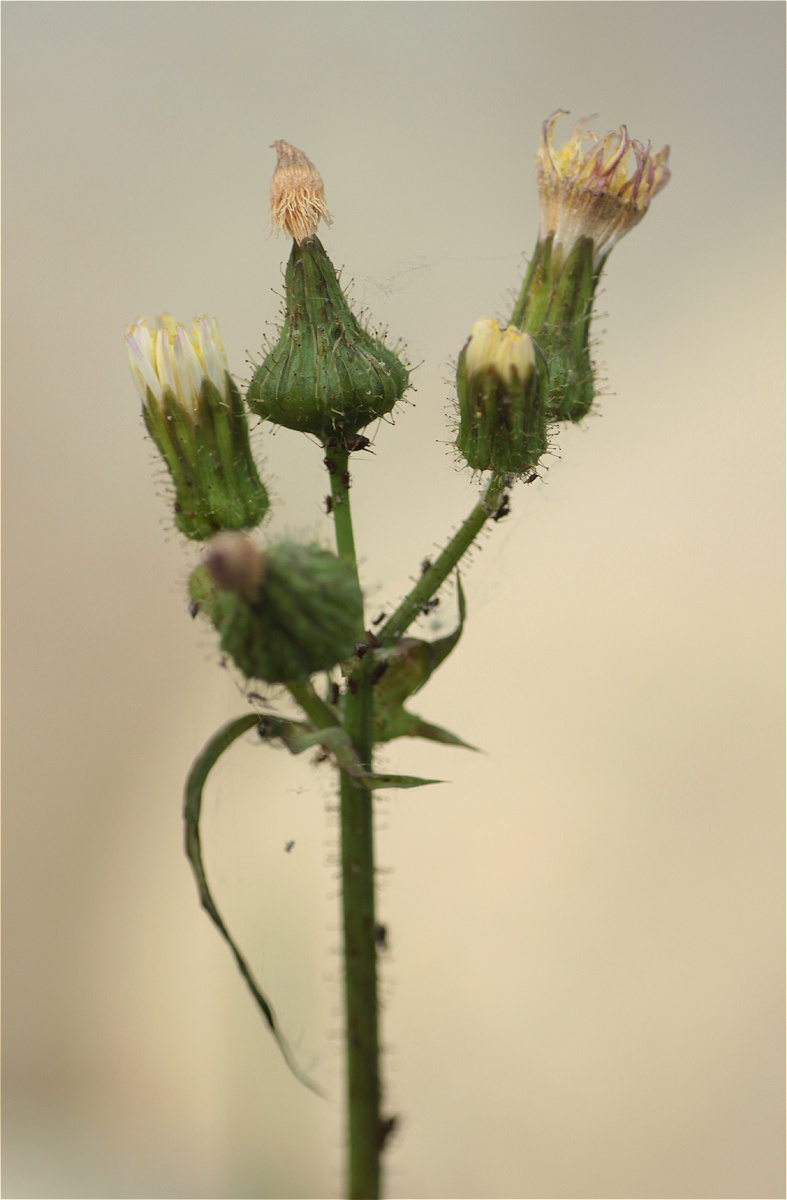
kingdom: Plantae
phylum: Tracheophyta
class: Magnoliopsida
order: Asterales
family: Asteraceae
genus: Sonchus
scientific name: Sonchus oleraceus
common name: Common sowthistle
